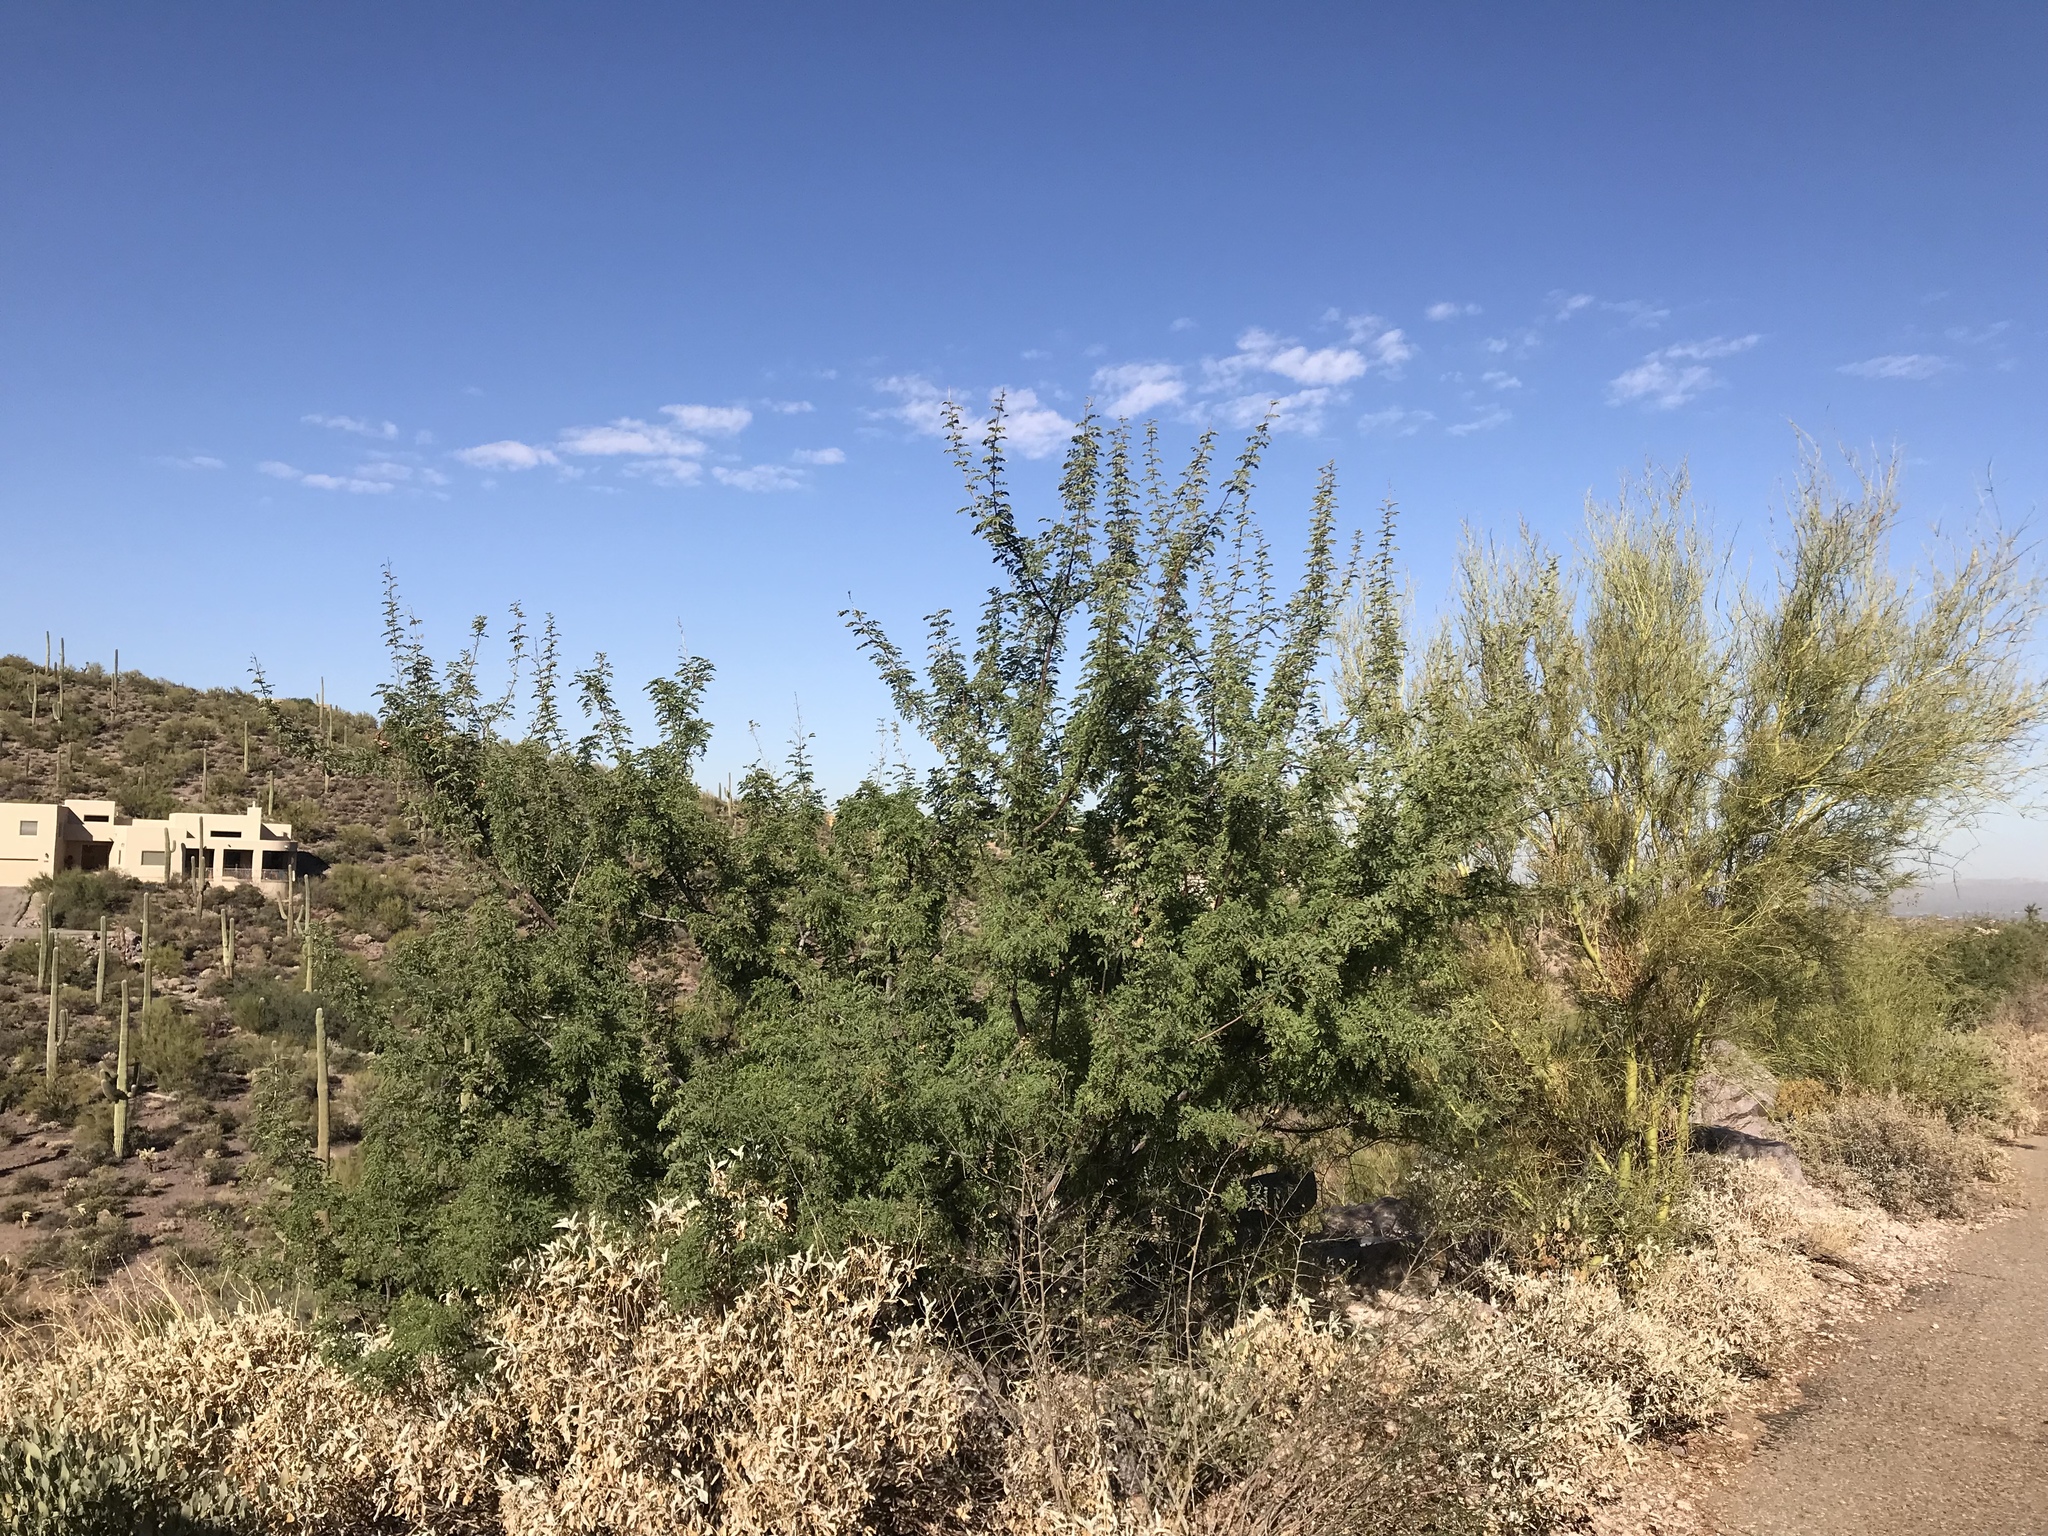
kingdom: Plantae
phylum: Tracheophyta
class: Magnoliopsida
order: Fabales
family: Fabaceae
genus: Senegalia
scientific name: Senegalia greggii
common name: Texas-mimosa
